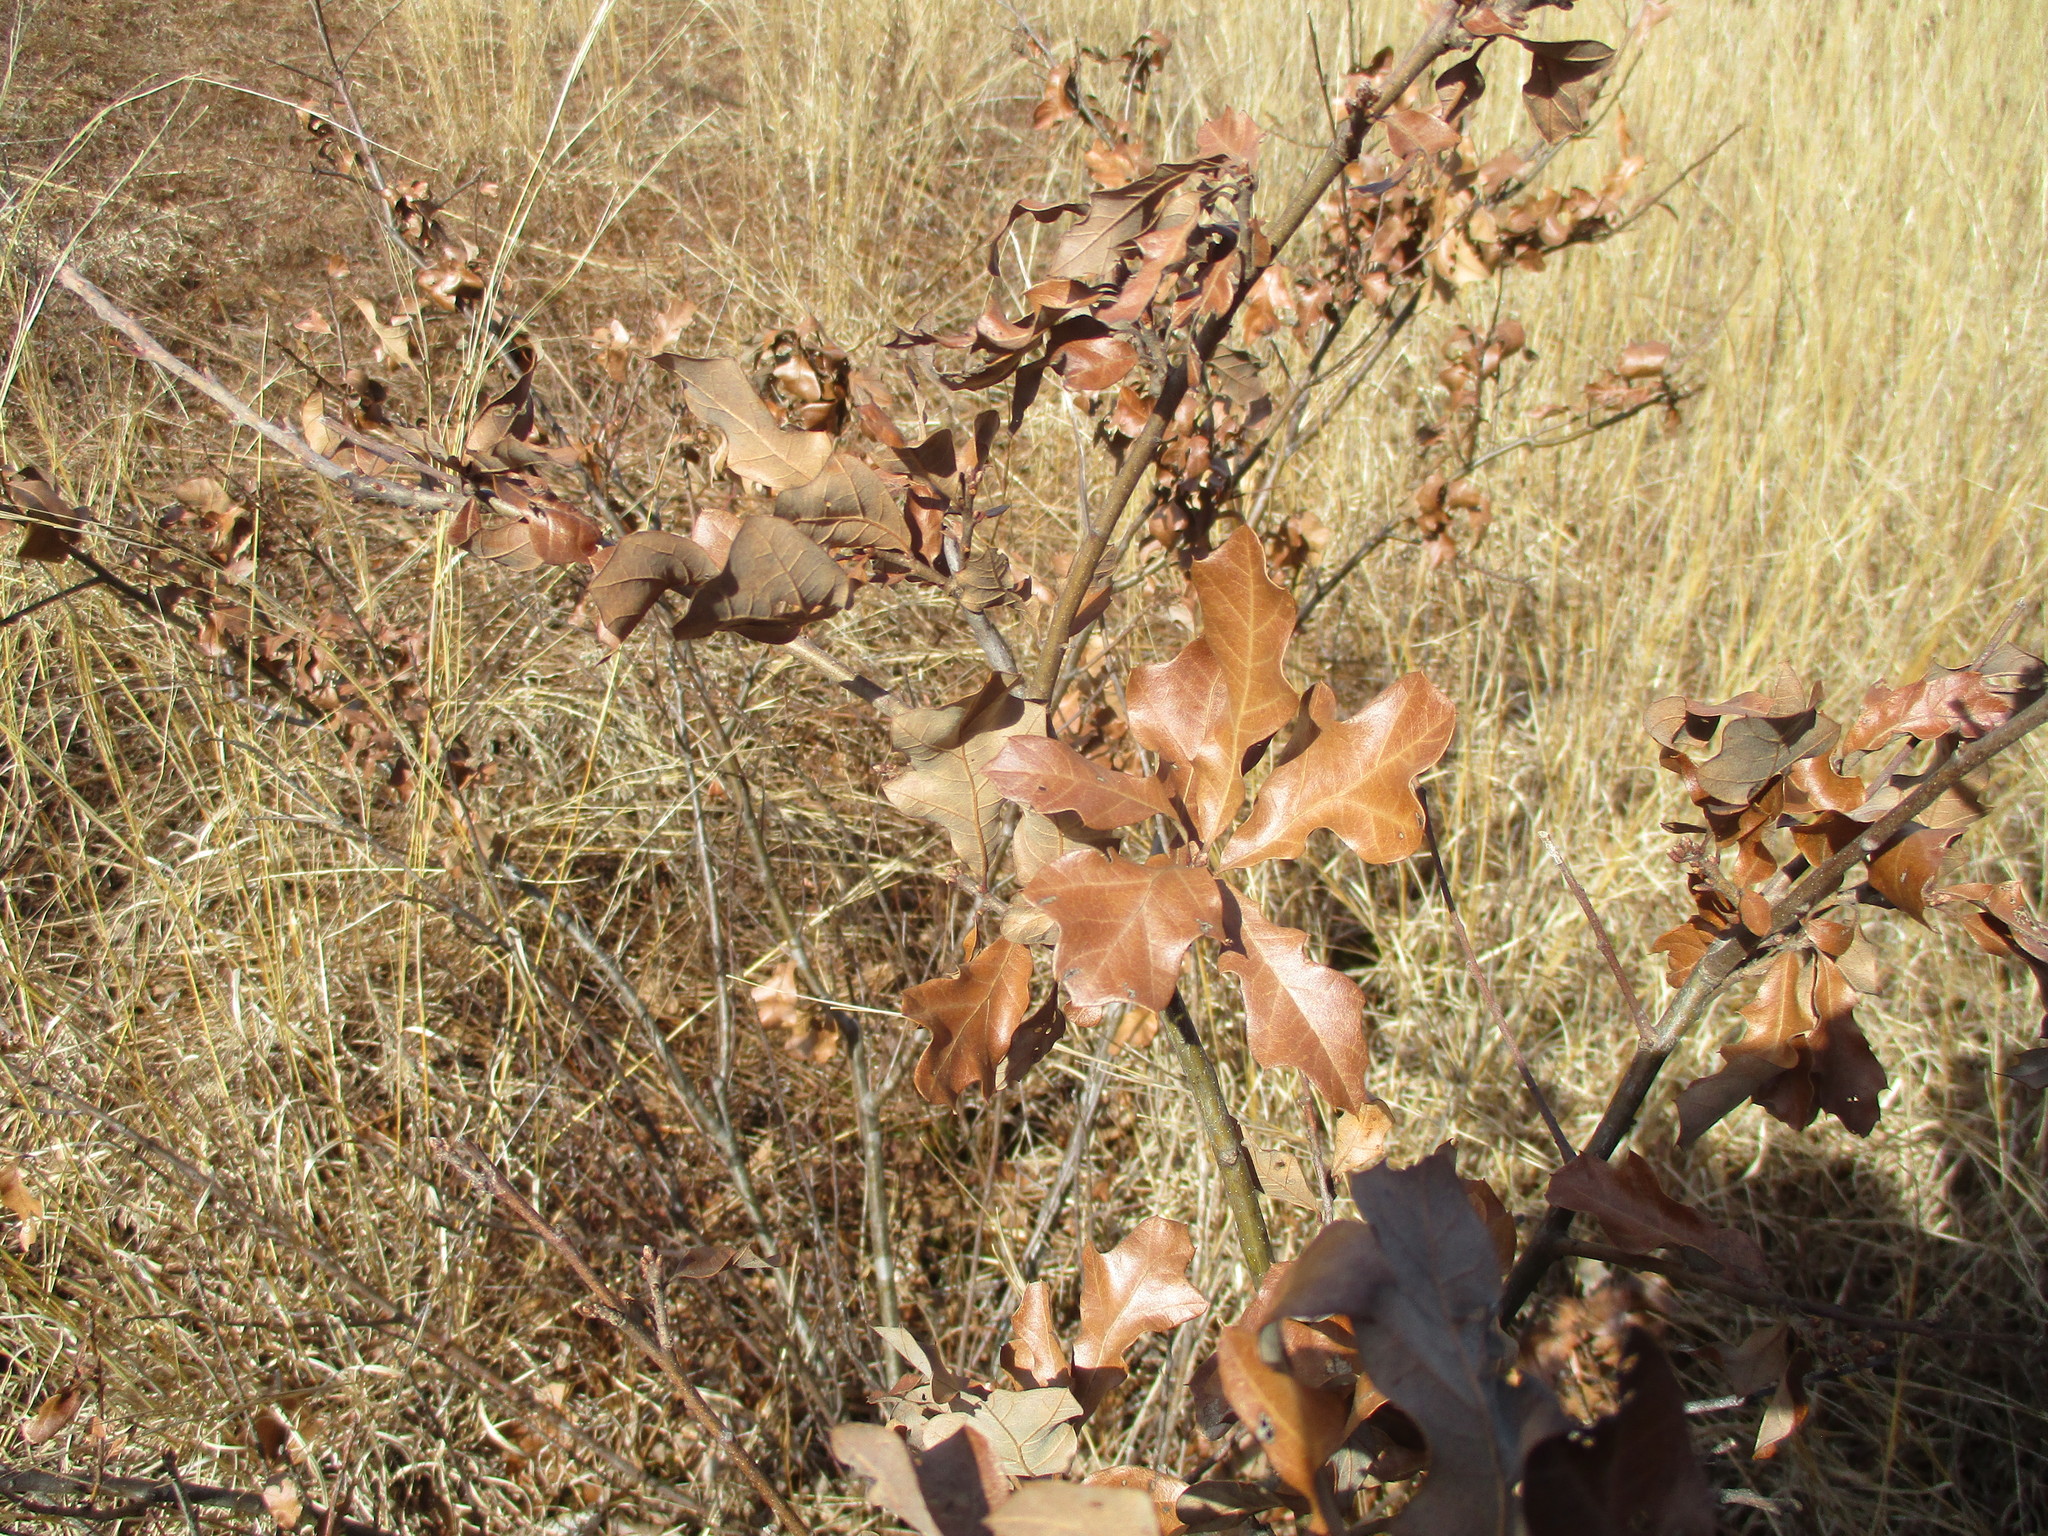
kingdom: Plantae
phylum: Tracheophyta
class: Magnoliopsida
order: Fagales
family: Fagaceae
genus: Quercus
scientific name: Quercus ilicifolia
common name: Bear oak
